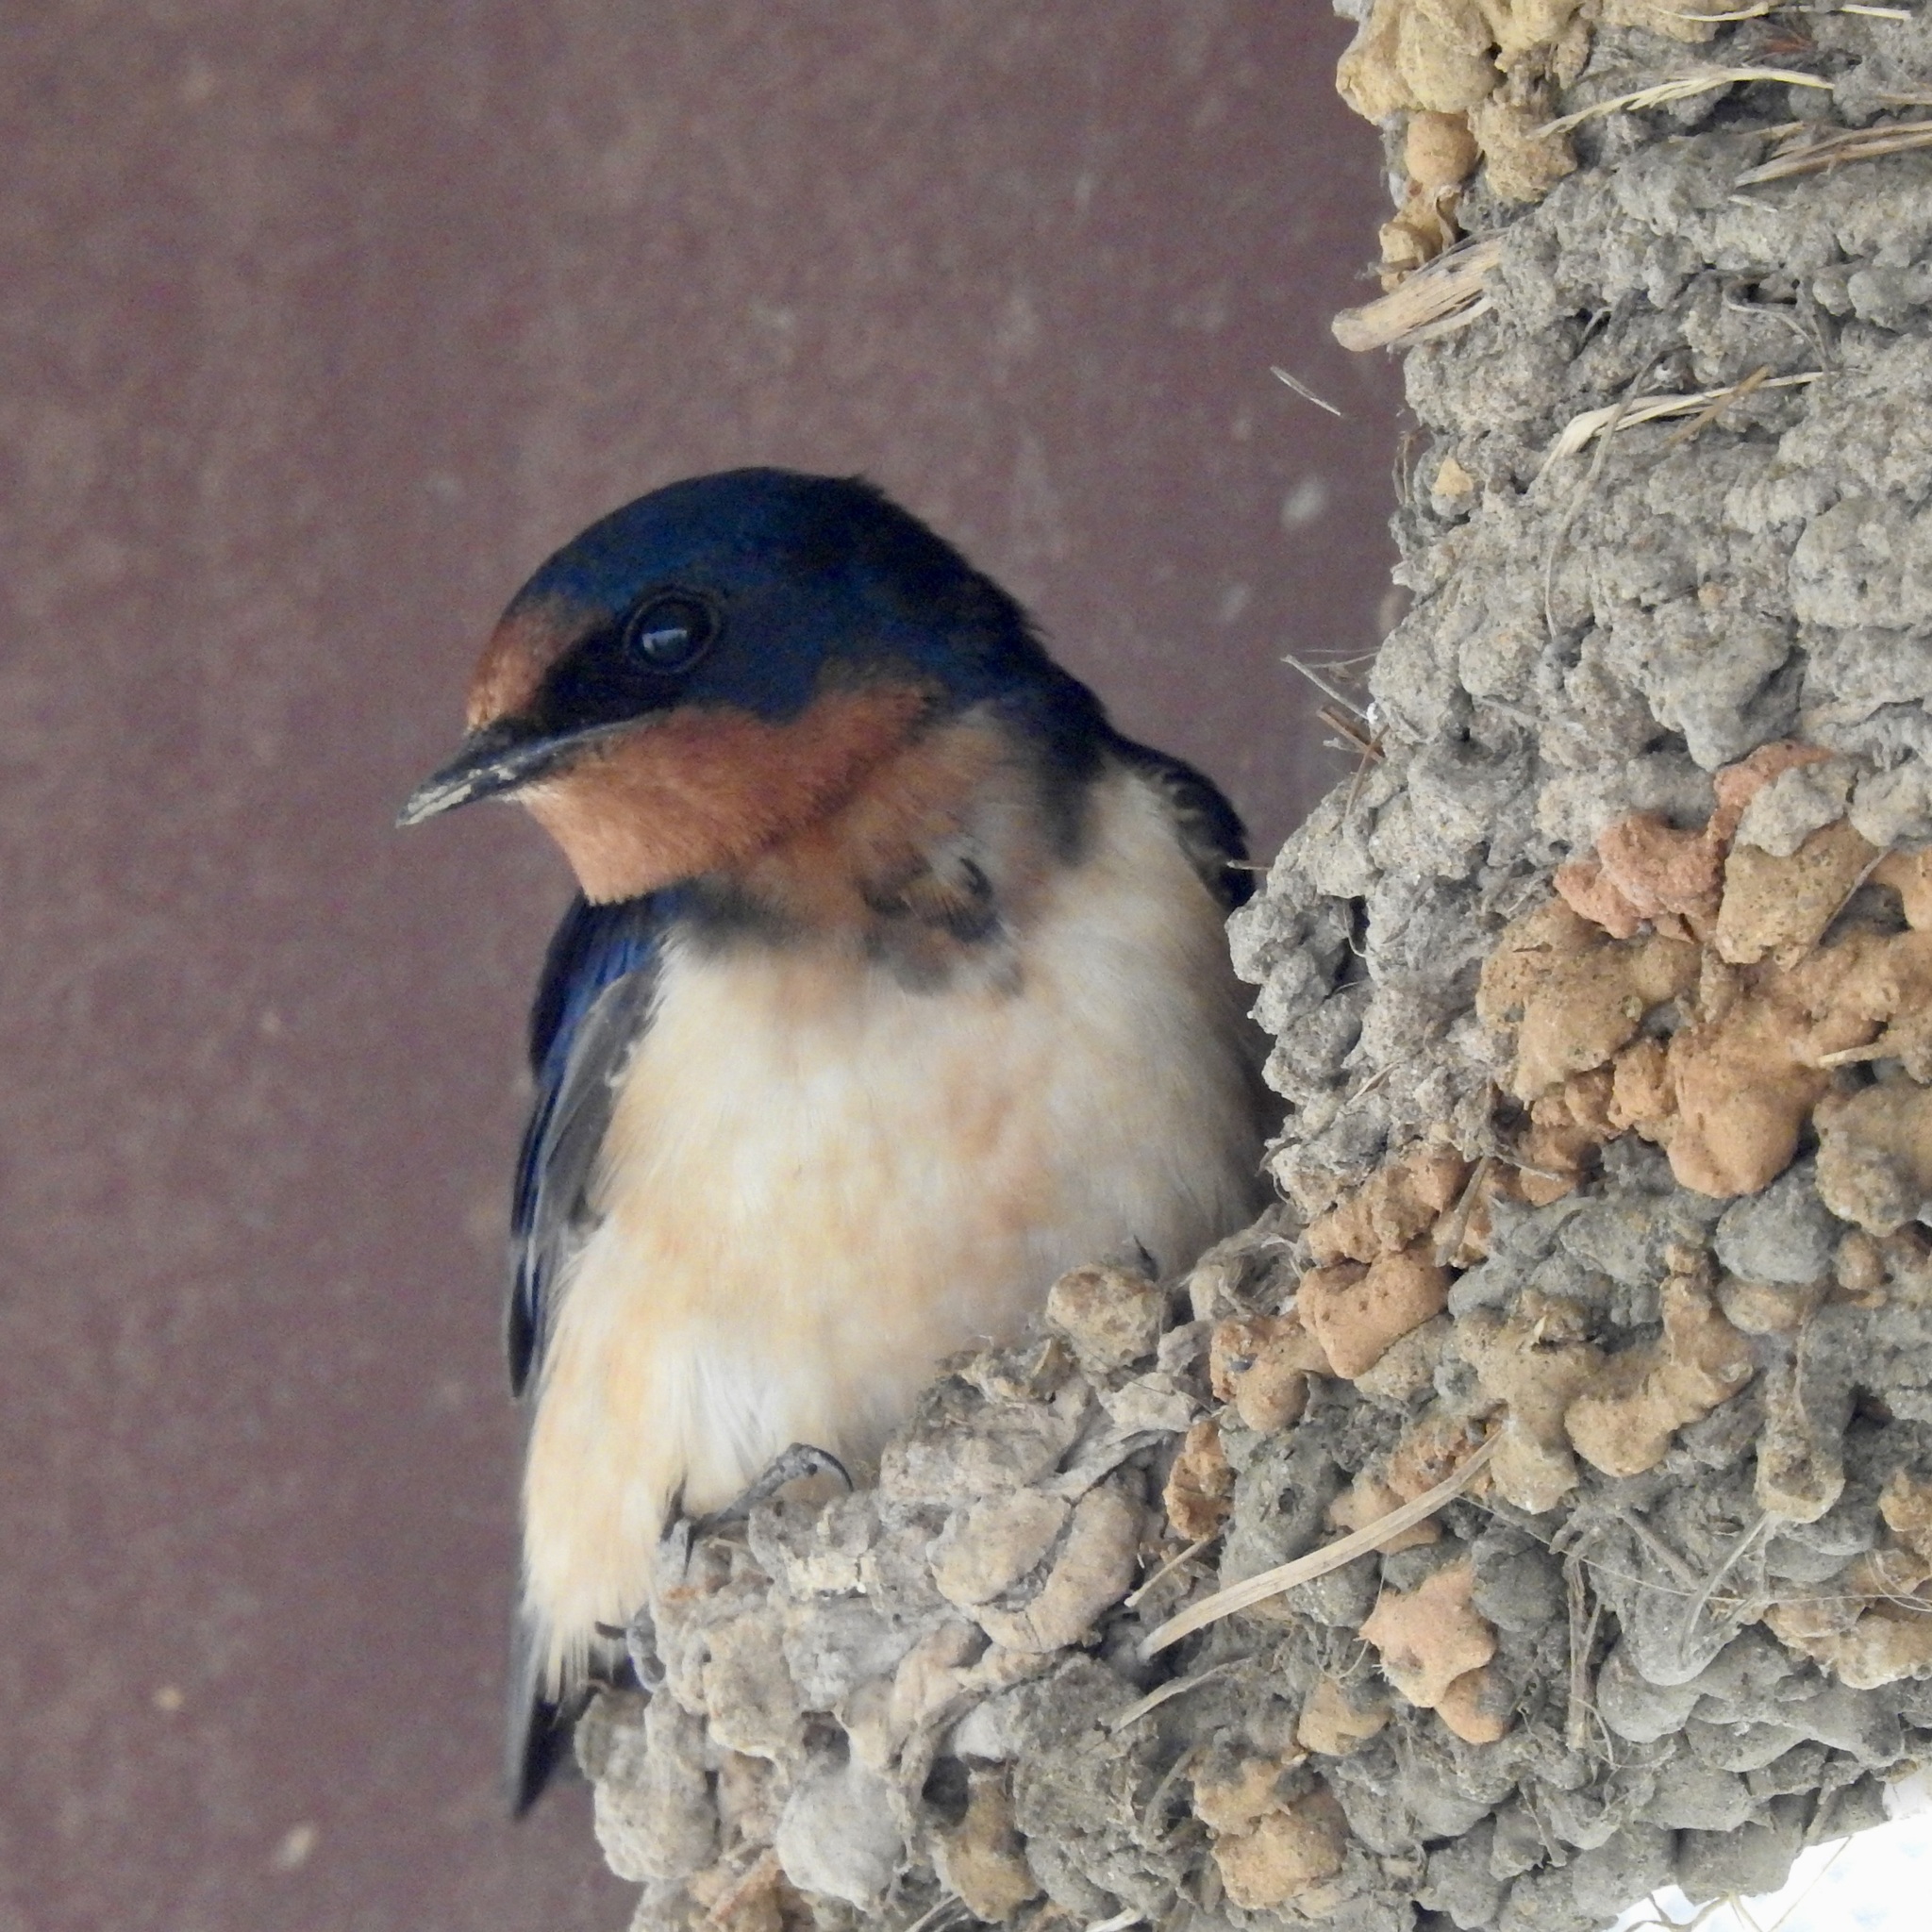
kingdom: Animalia
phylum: Chordata
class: Aves
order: Passeriformes
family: Hirundinidae
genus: Hirundo
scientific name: Hirundo rustica
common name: Barn swallow
